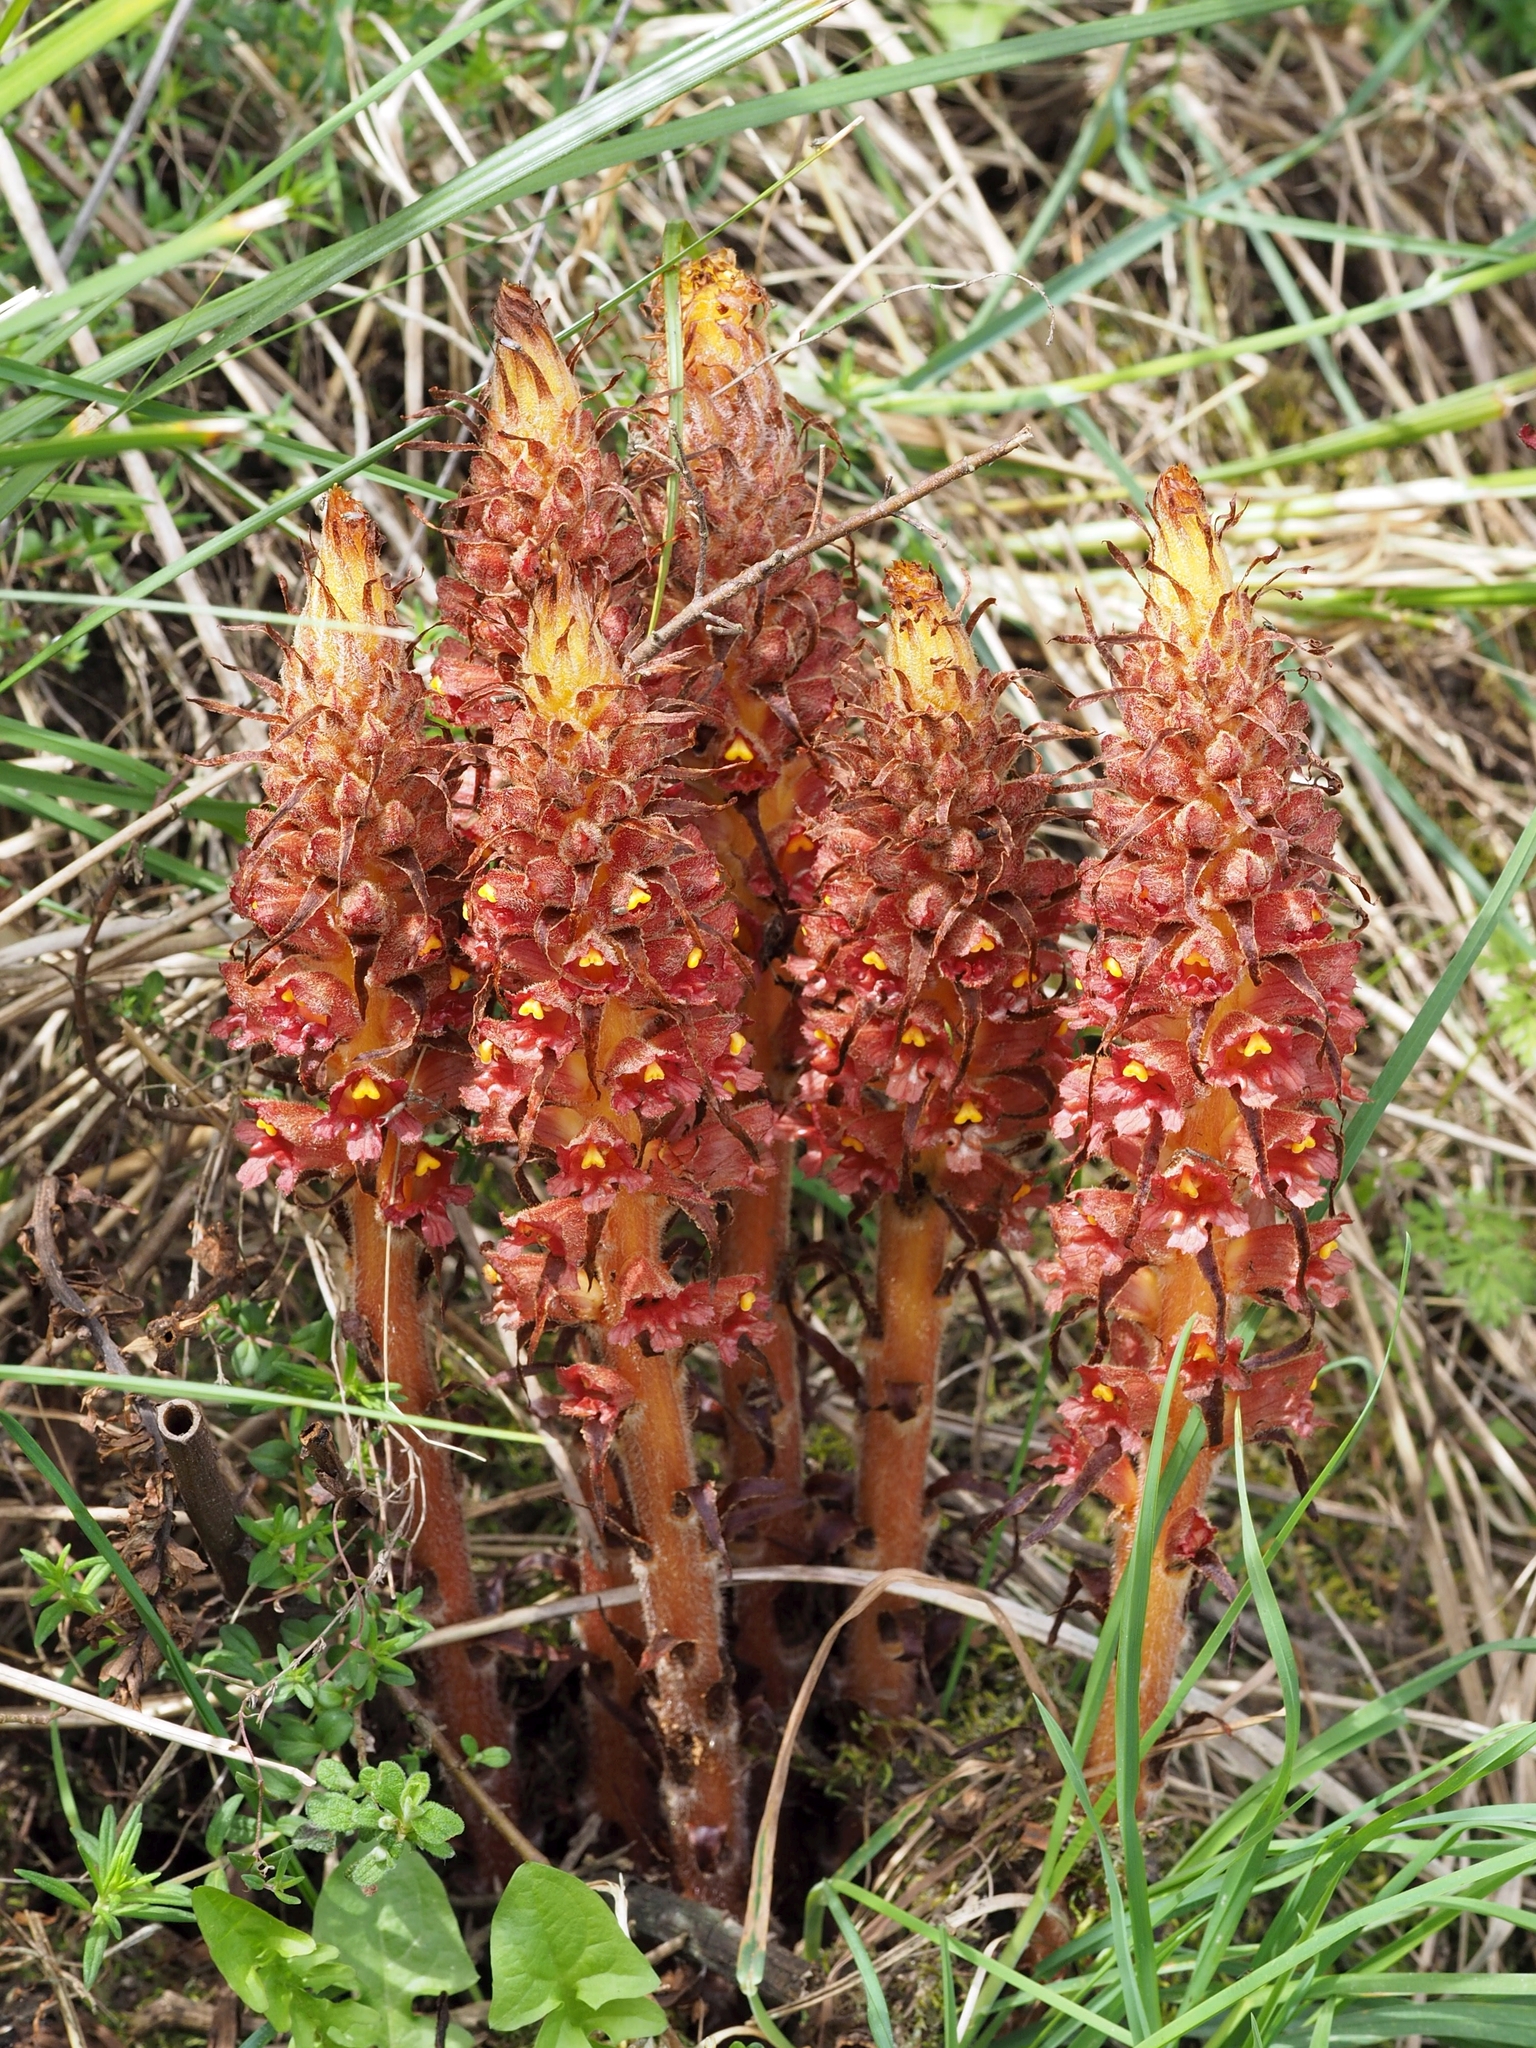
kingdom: Plantae
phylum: Tracheophyta
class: Magnoliopsida
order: Lamiales
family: Orobanchaceae
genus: Orobanche
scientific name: Orobanche variegata
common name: Variegated broomrape
